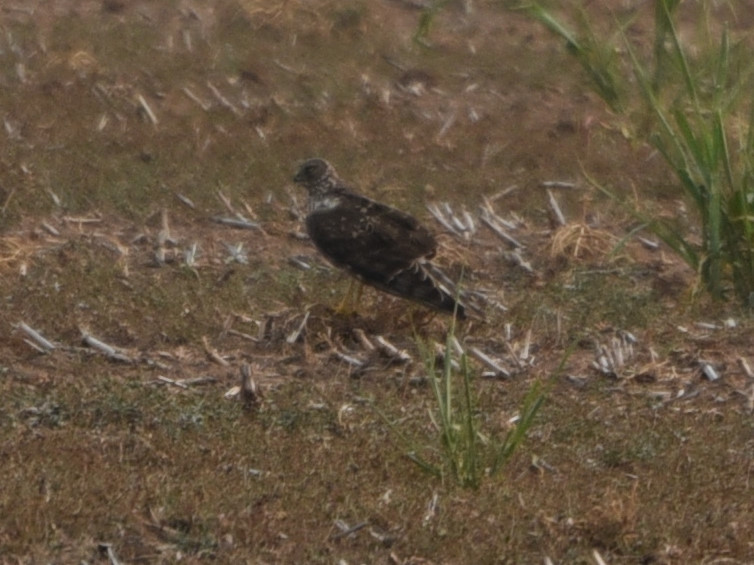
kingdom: Animalia
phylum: Chordata
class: Aves
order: Accipitriformes
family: Accipitridae
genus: Circus
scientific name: Circus cyaneus
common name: Hen harrier
